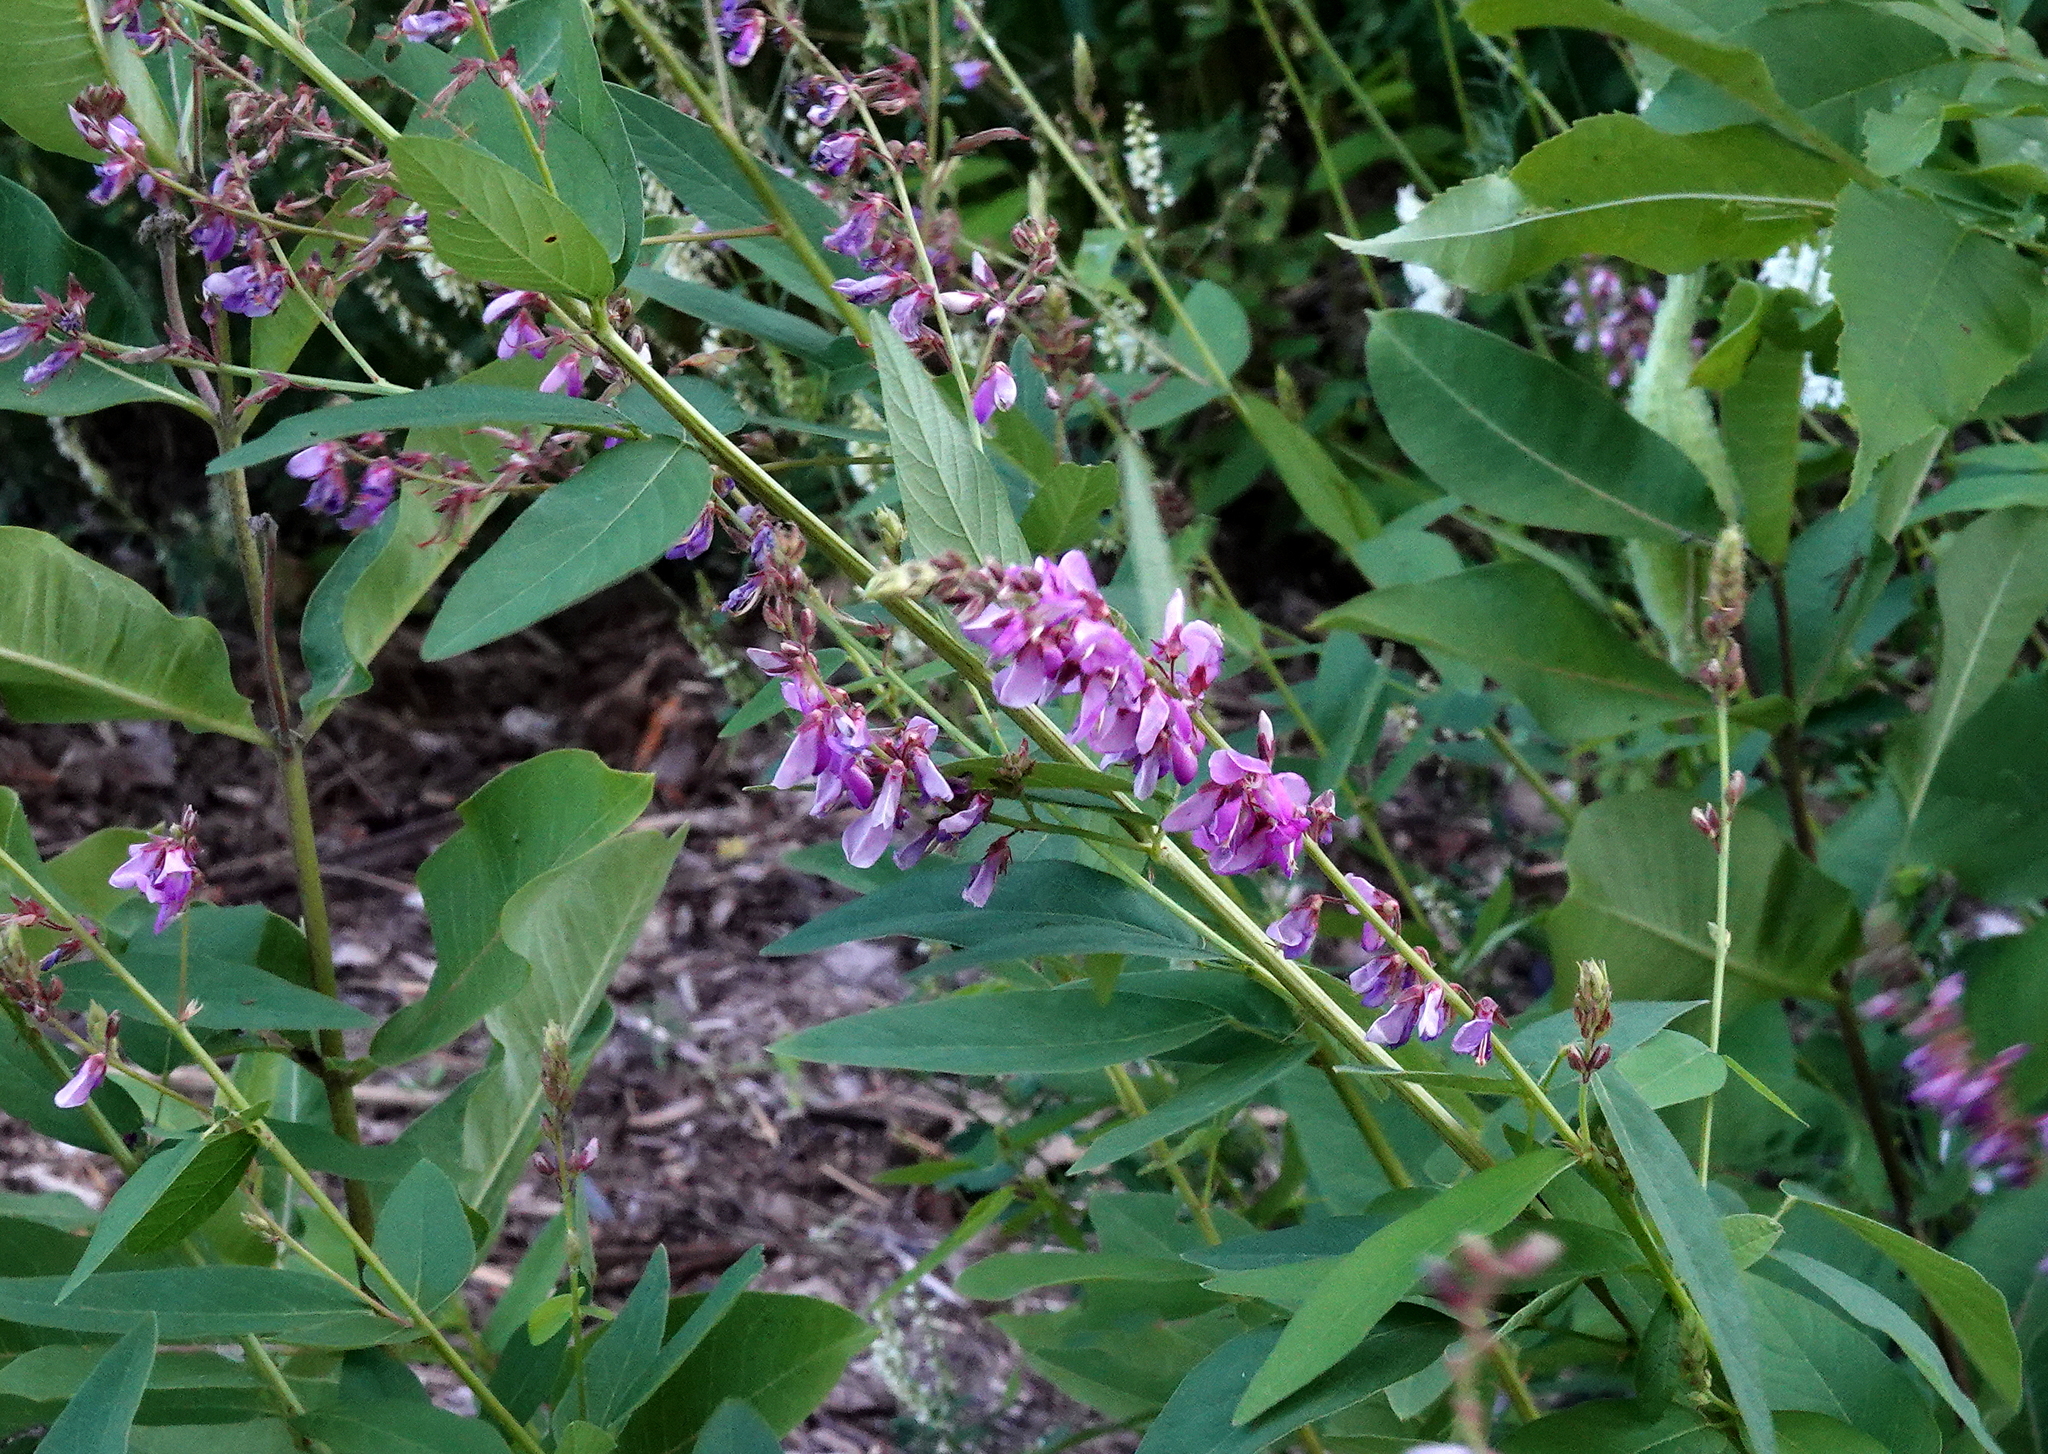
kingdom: Plantae
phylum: Tracheophyta
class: Magnoliopsida
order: Fabales
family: Fabaceae
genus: Desmodium
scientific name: Desmodium canadense
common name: Canada tick-trefoil
